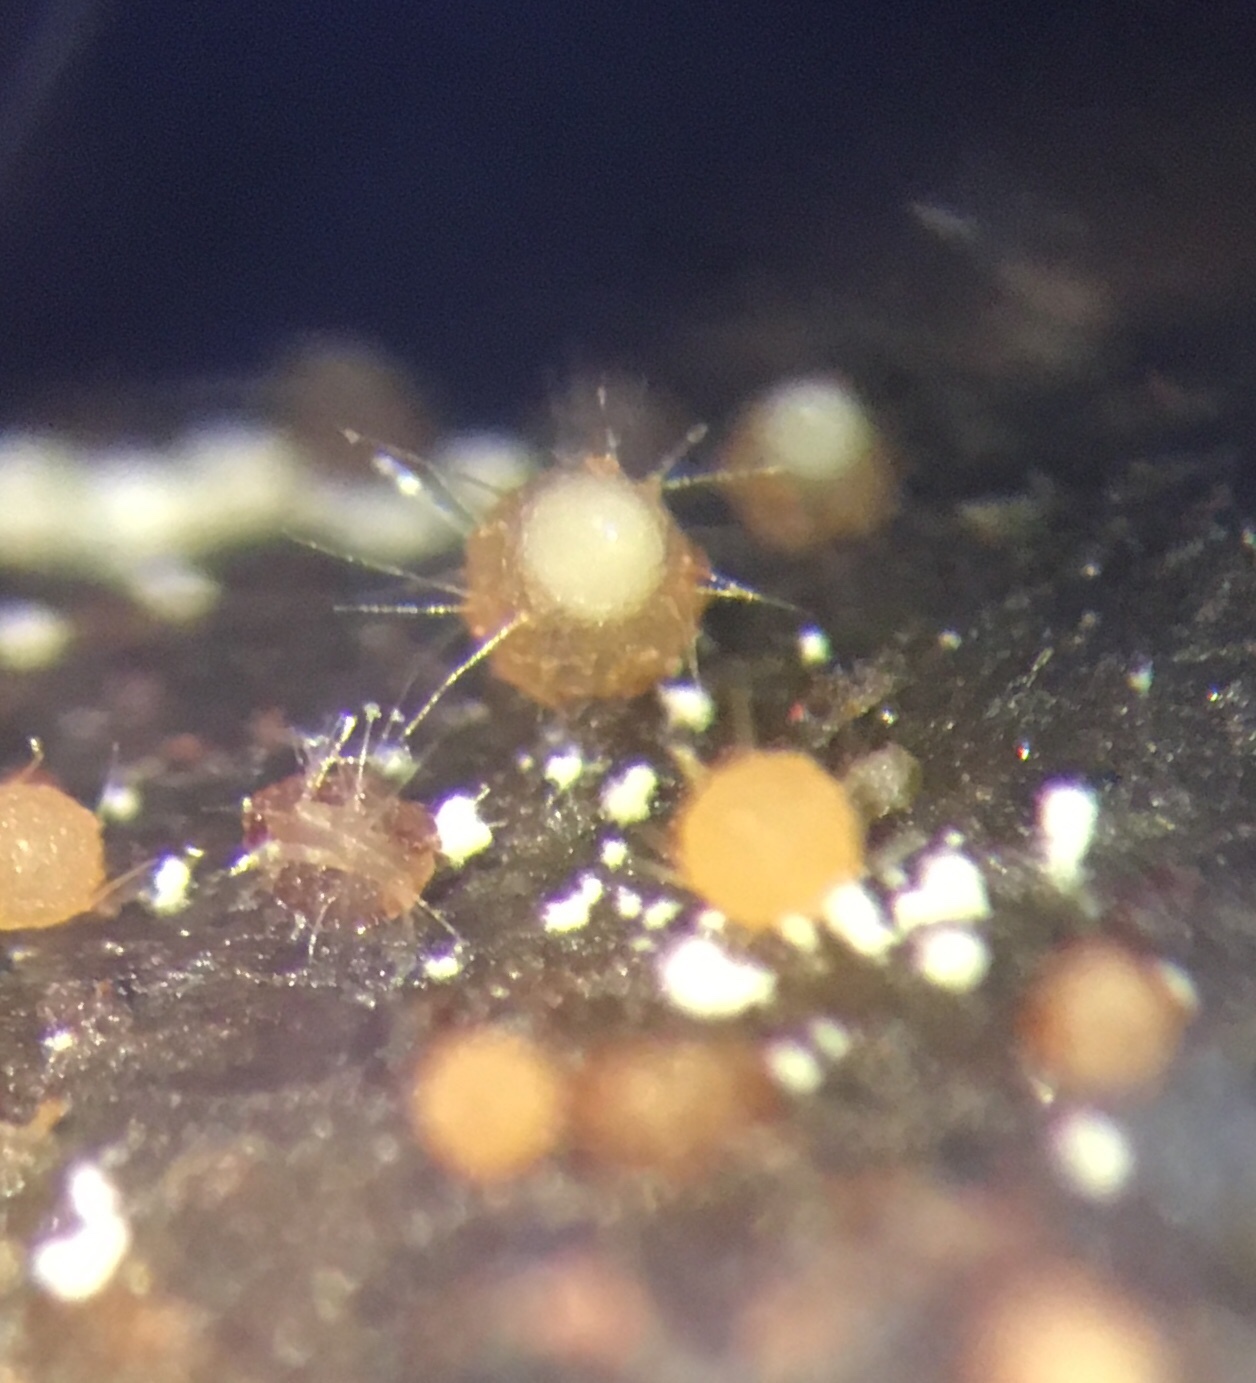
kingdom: Fungi
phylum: Ascomycota
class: Pezizomycetes
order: Pezizales
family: Ascodesmidaceae
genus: Trichobolus
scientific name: Trichobolus zukalii
